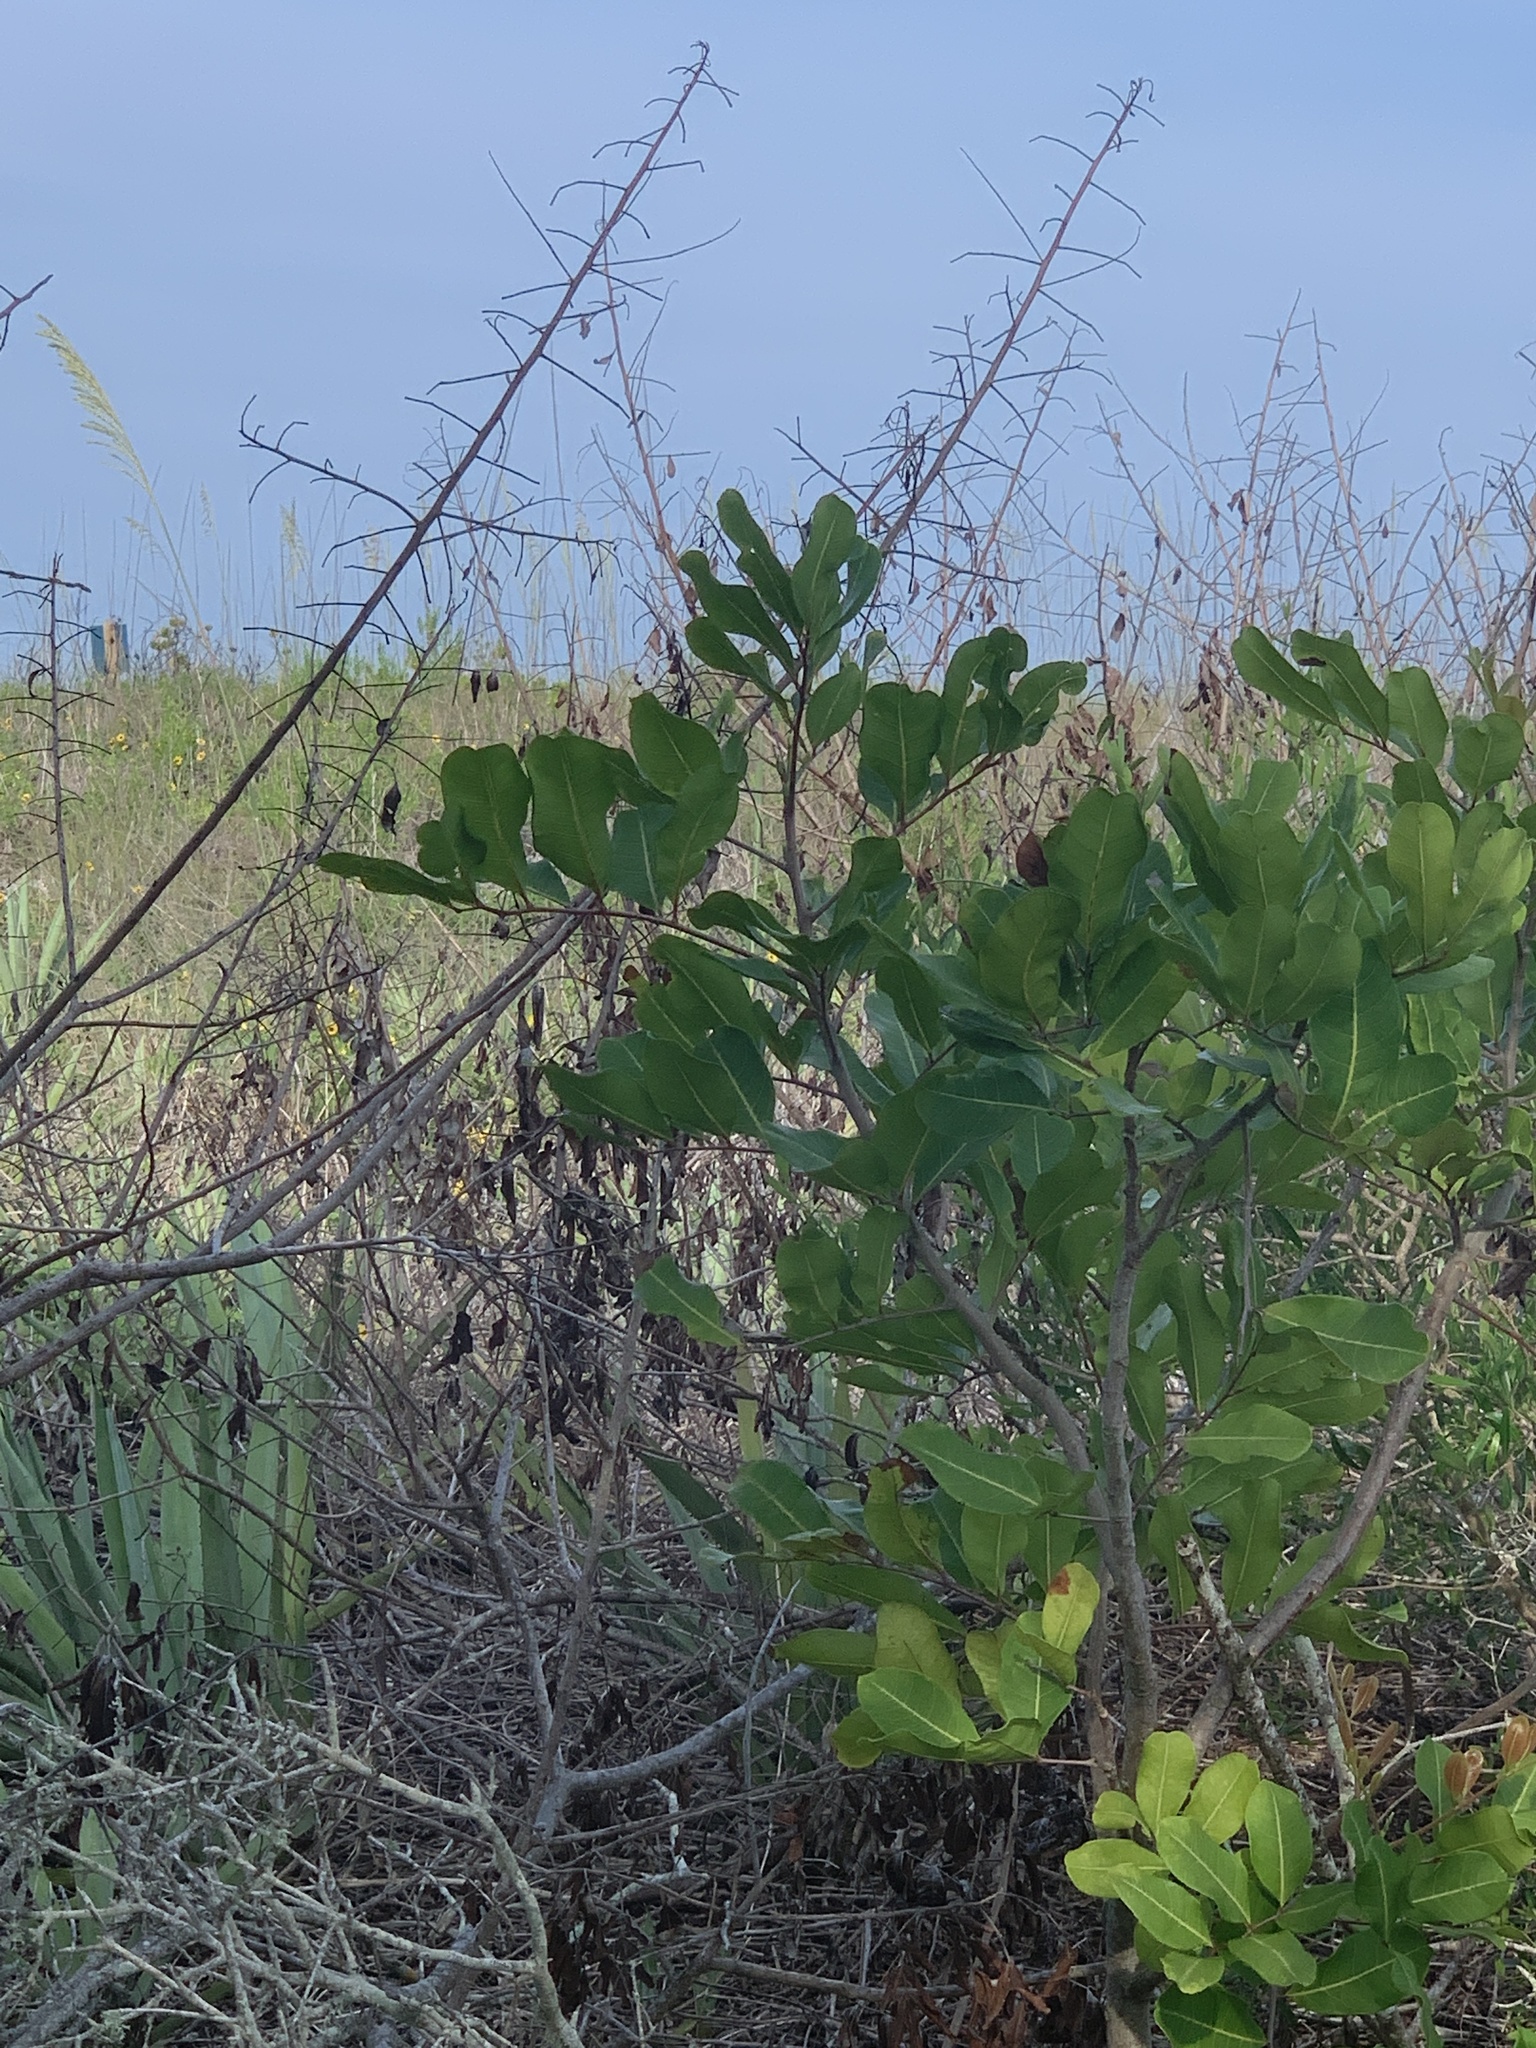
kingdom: Plantae
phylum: Tracheophyta
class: Magnoliopsida
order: Sapindales
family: Sapindaceae
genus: Cupaniopsis
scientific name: Cupaniopsis anacardioides
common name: Carrotwood
